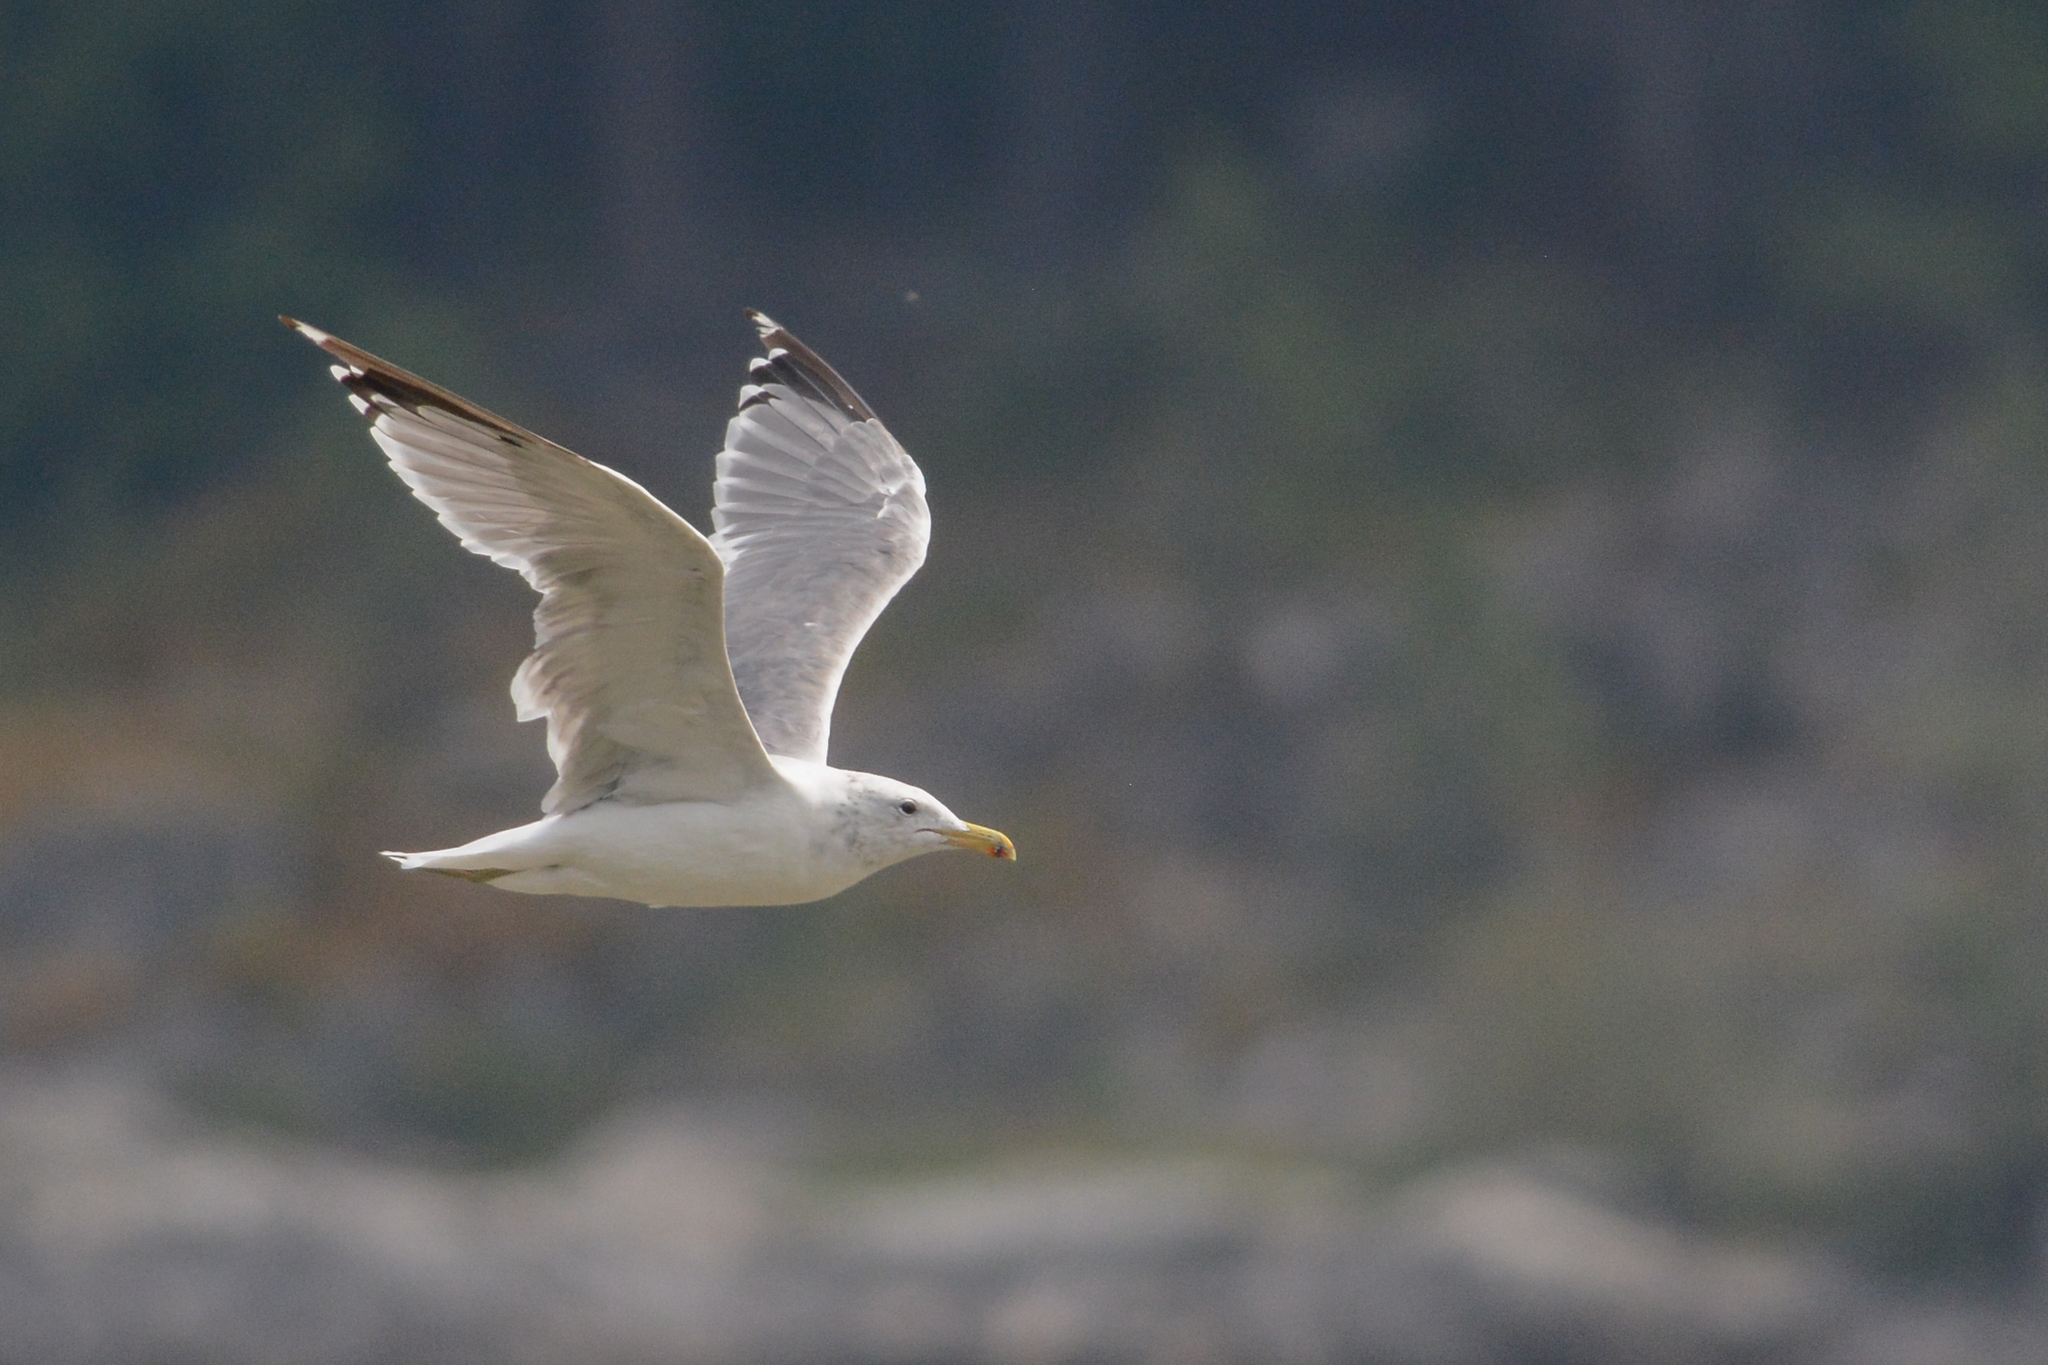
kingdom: Animalia
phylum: Chordata
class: Aves
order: Charadriiformes
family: Laridae
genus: Larus
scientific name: Larus californicus
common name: California gull
